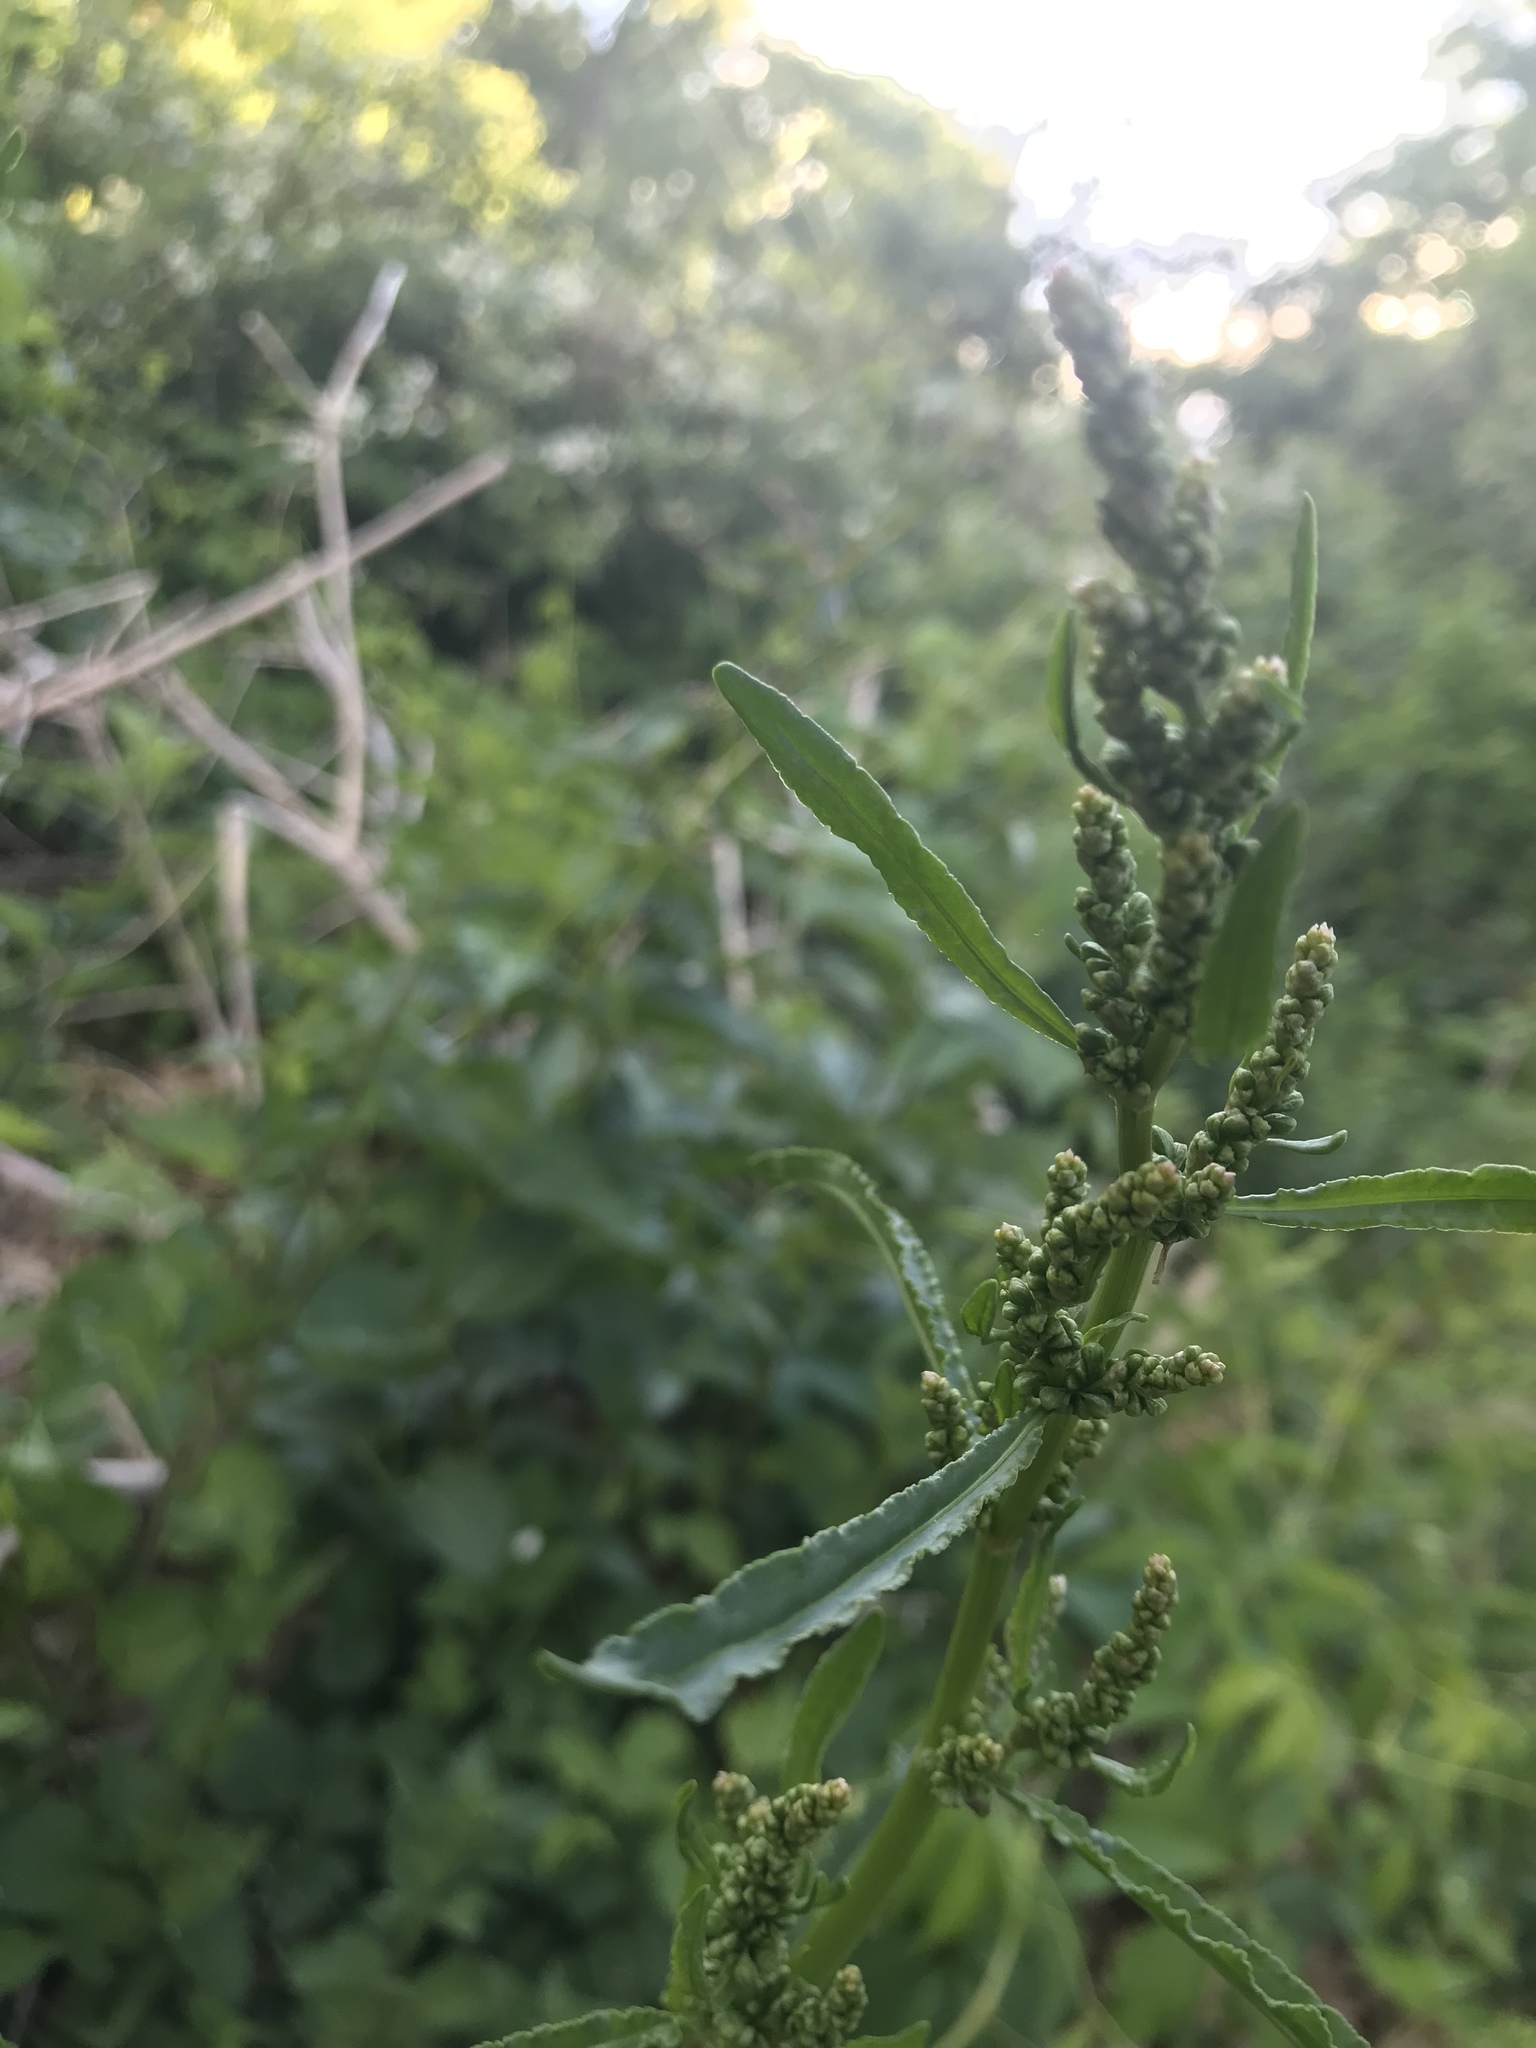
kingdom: Plantae
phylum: Tracheophyta
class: Magnoliopsida
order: Caryophyllales
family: Polygonaceae
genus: Rumex
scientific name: Rumex crispus
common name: Curled dock
